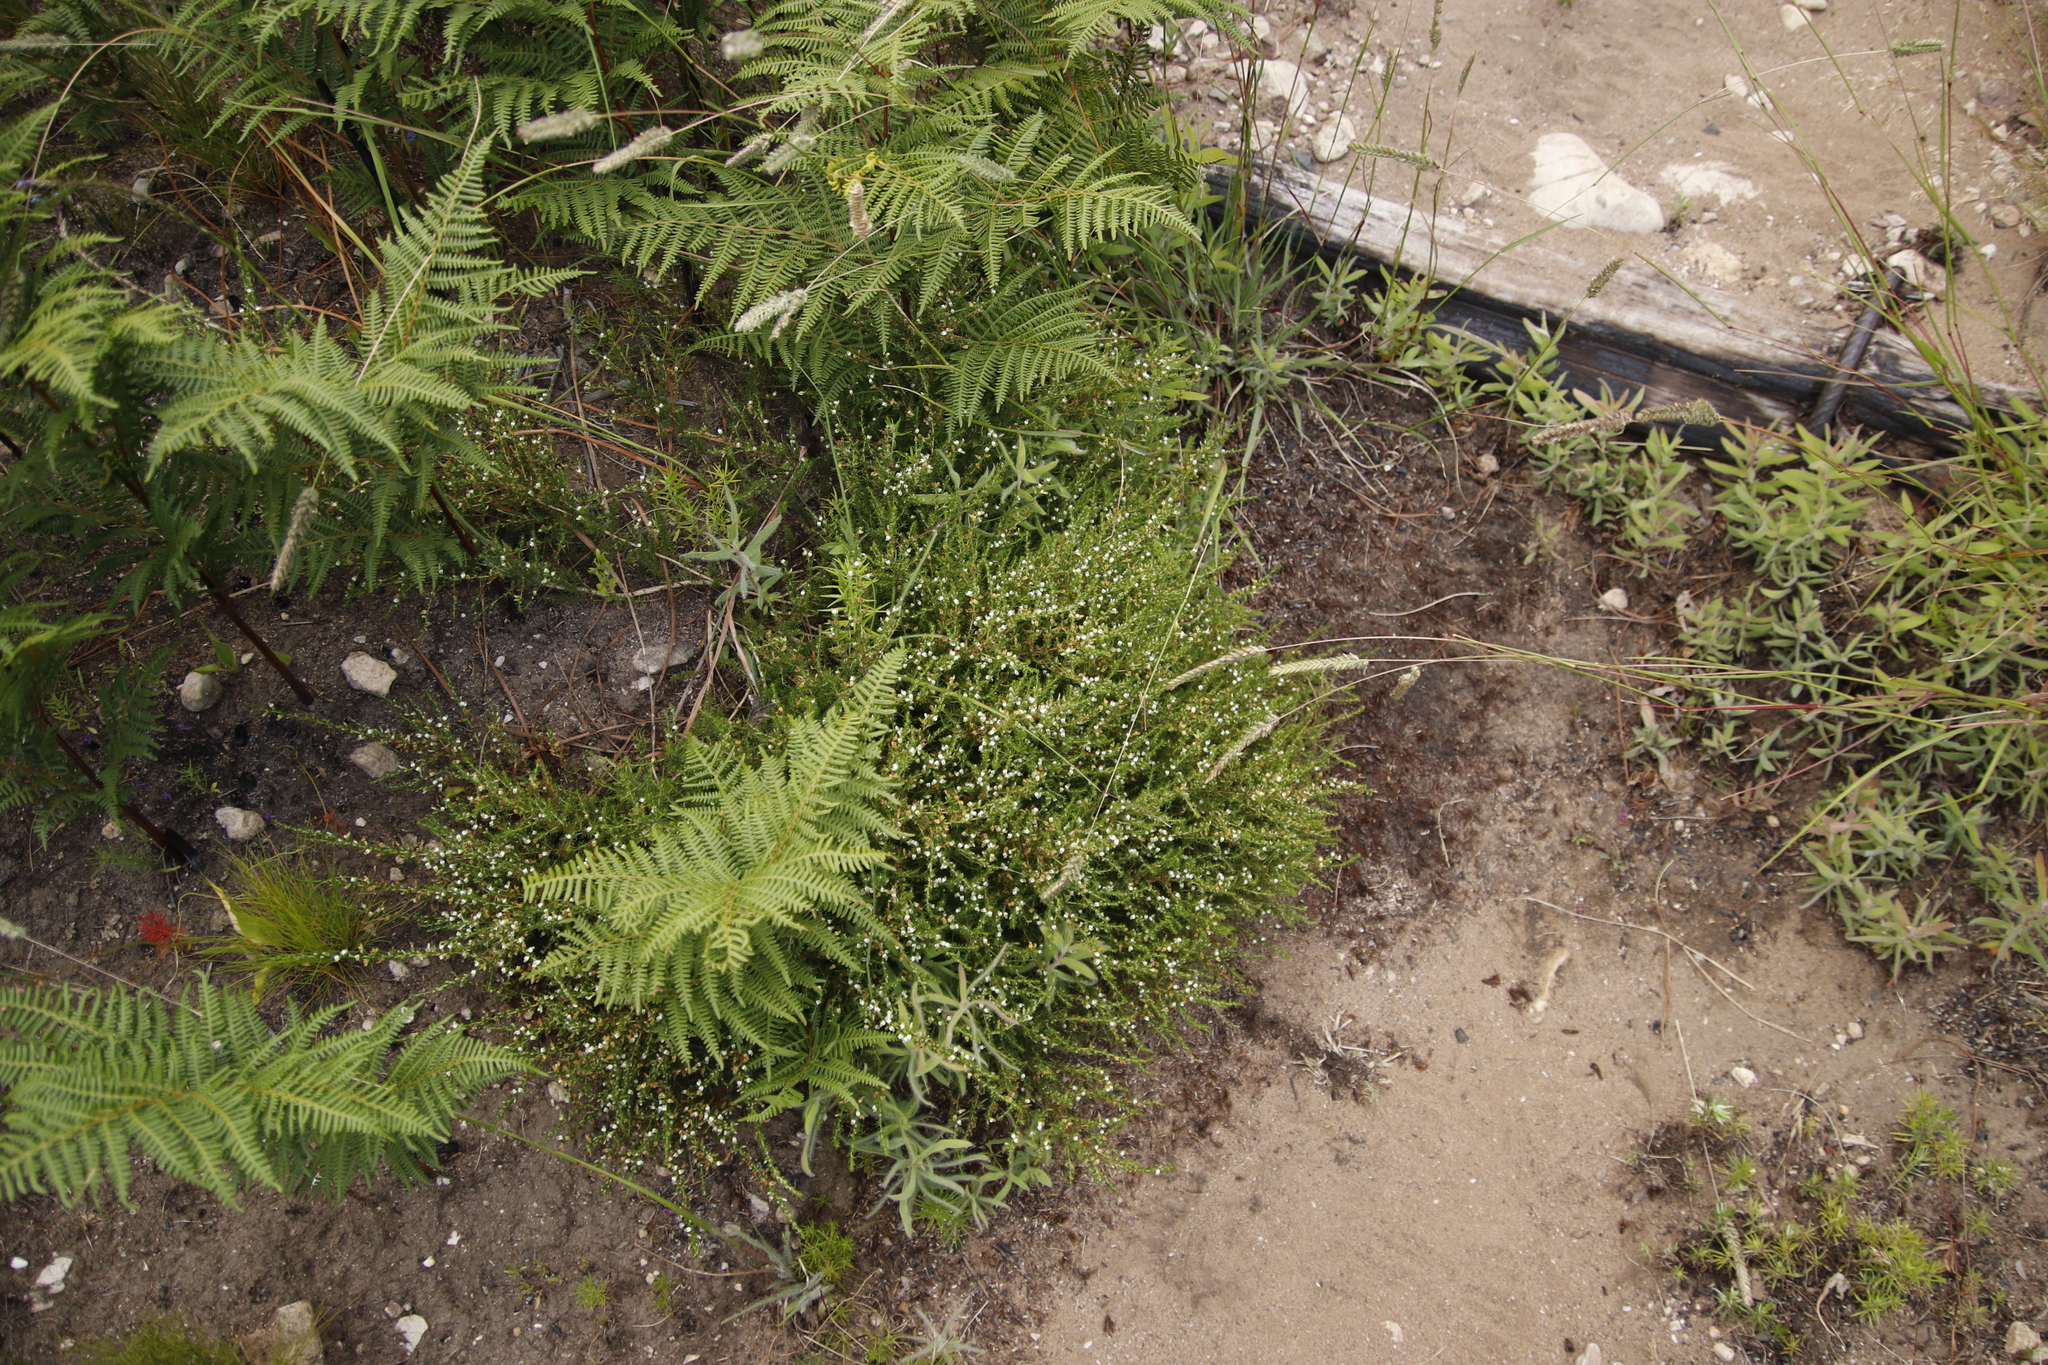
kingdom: Plantae
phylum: Tracheophyta
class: Magnoliopsida
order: Fabales
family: Fabaceae
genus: Aspalathus
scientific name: Aspalathus hispida
